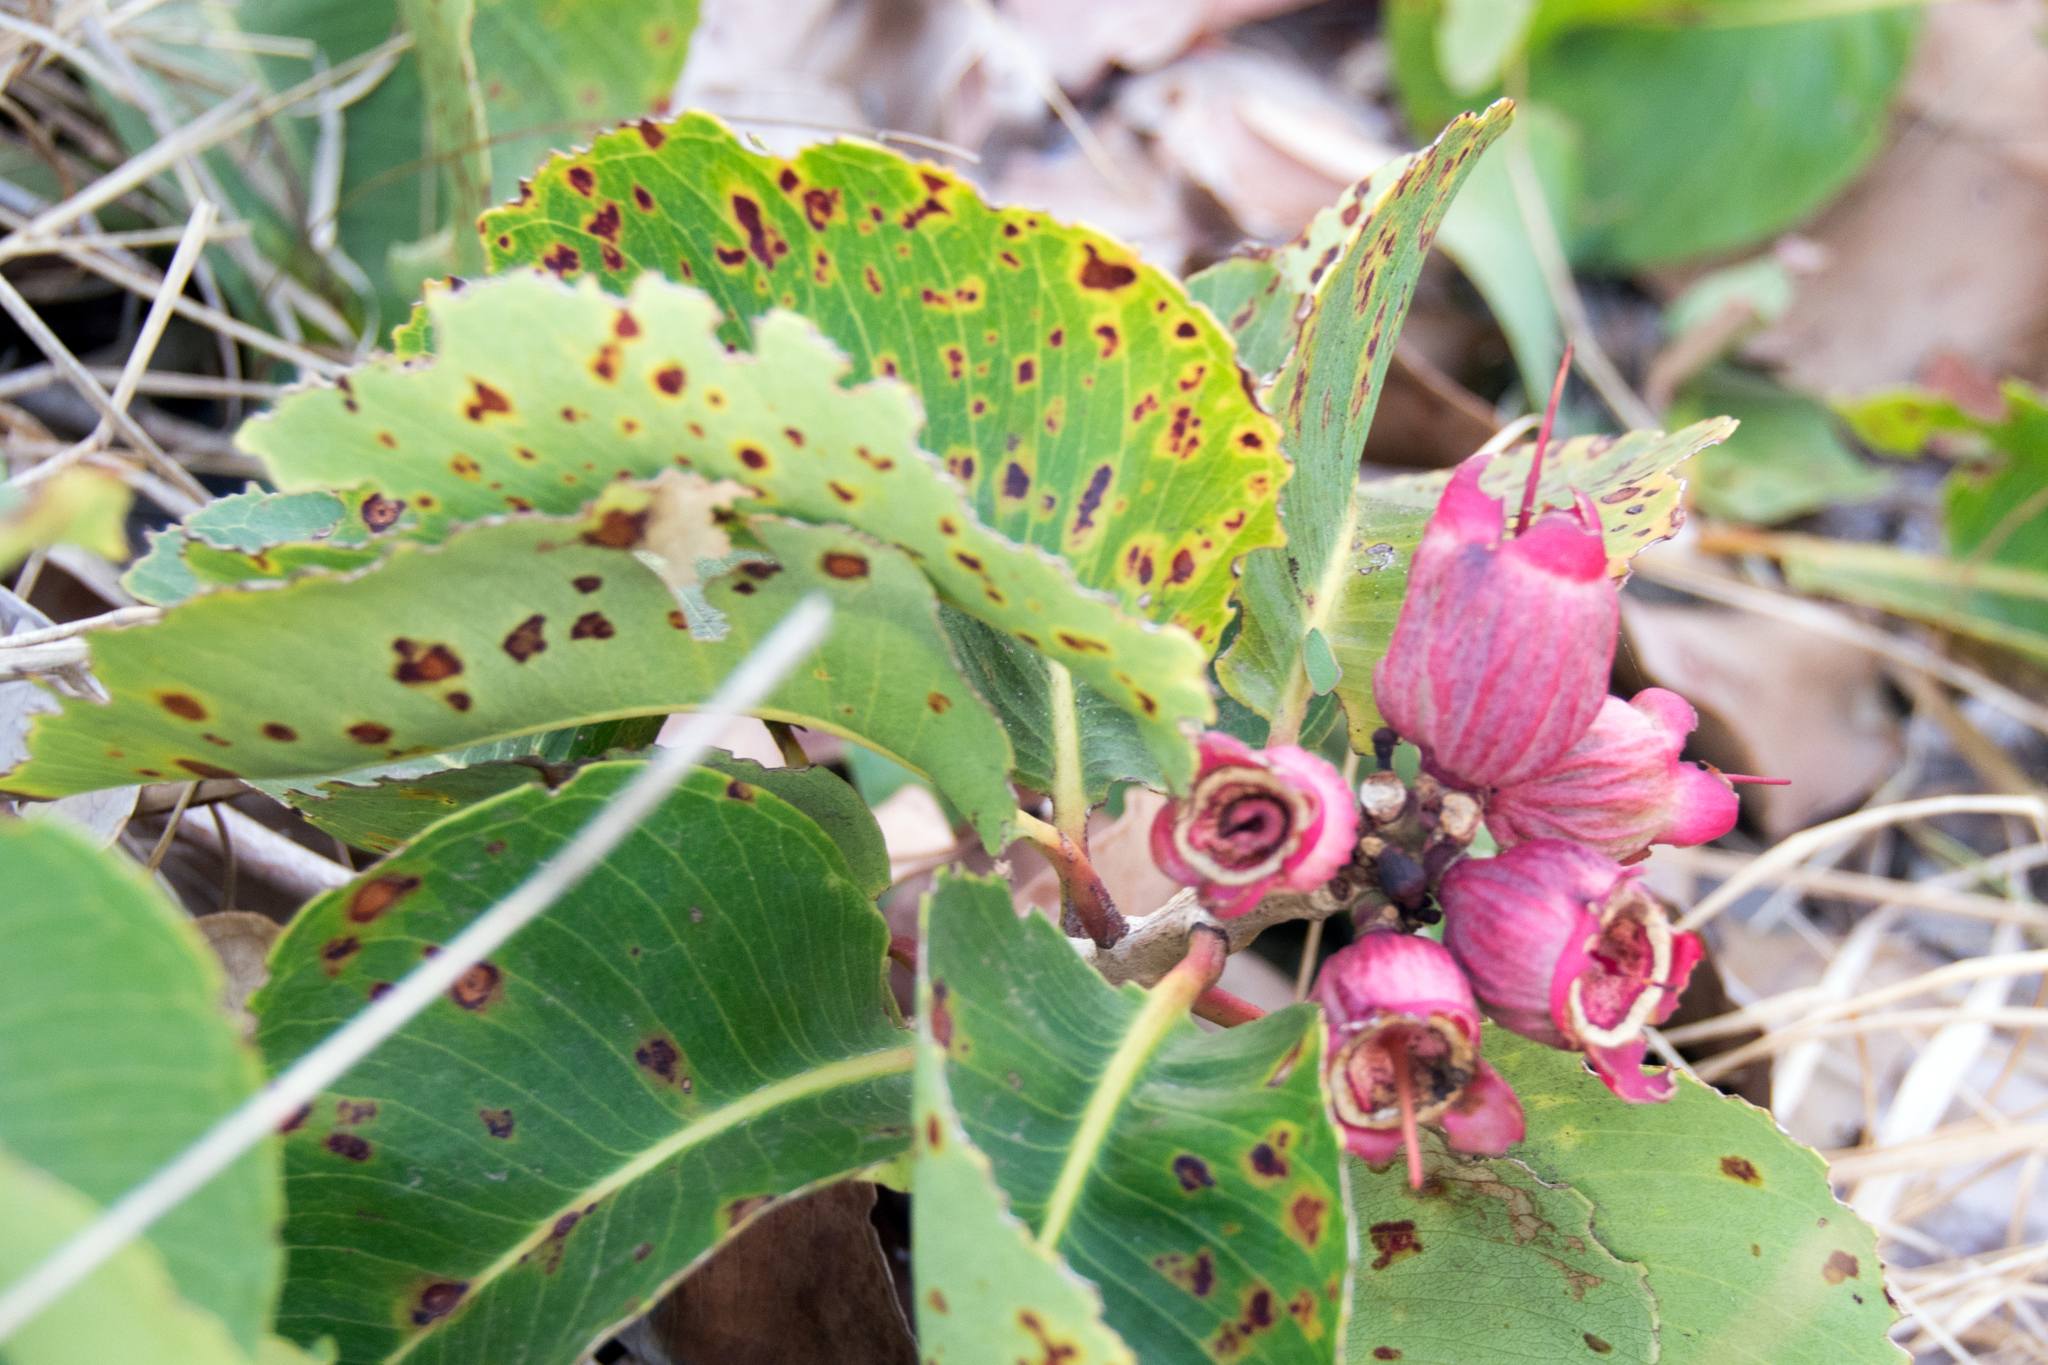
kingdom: Plantae
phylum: Tracheophyta
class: Magnoliopsida
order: Myrtales
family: Myrtaceae
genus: Syzygium
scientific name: Syzygium suborbiculare
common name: Red bush apple
